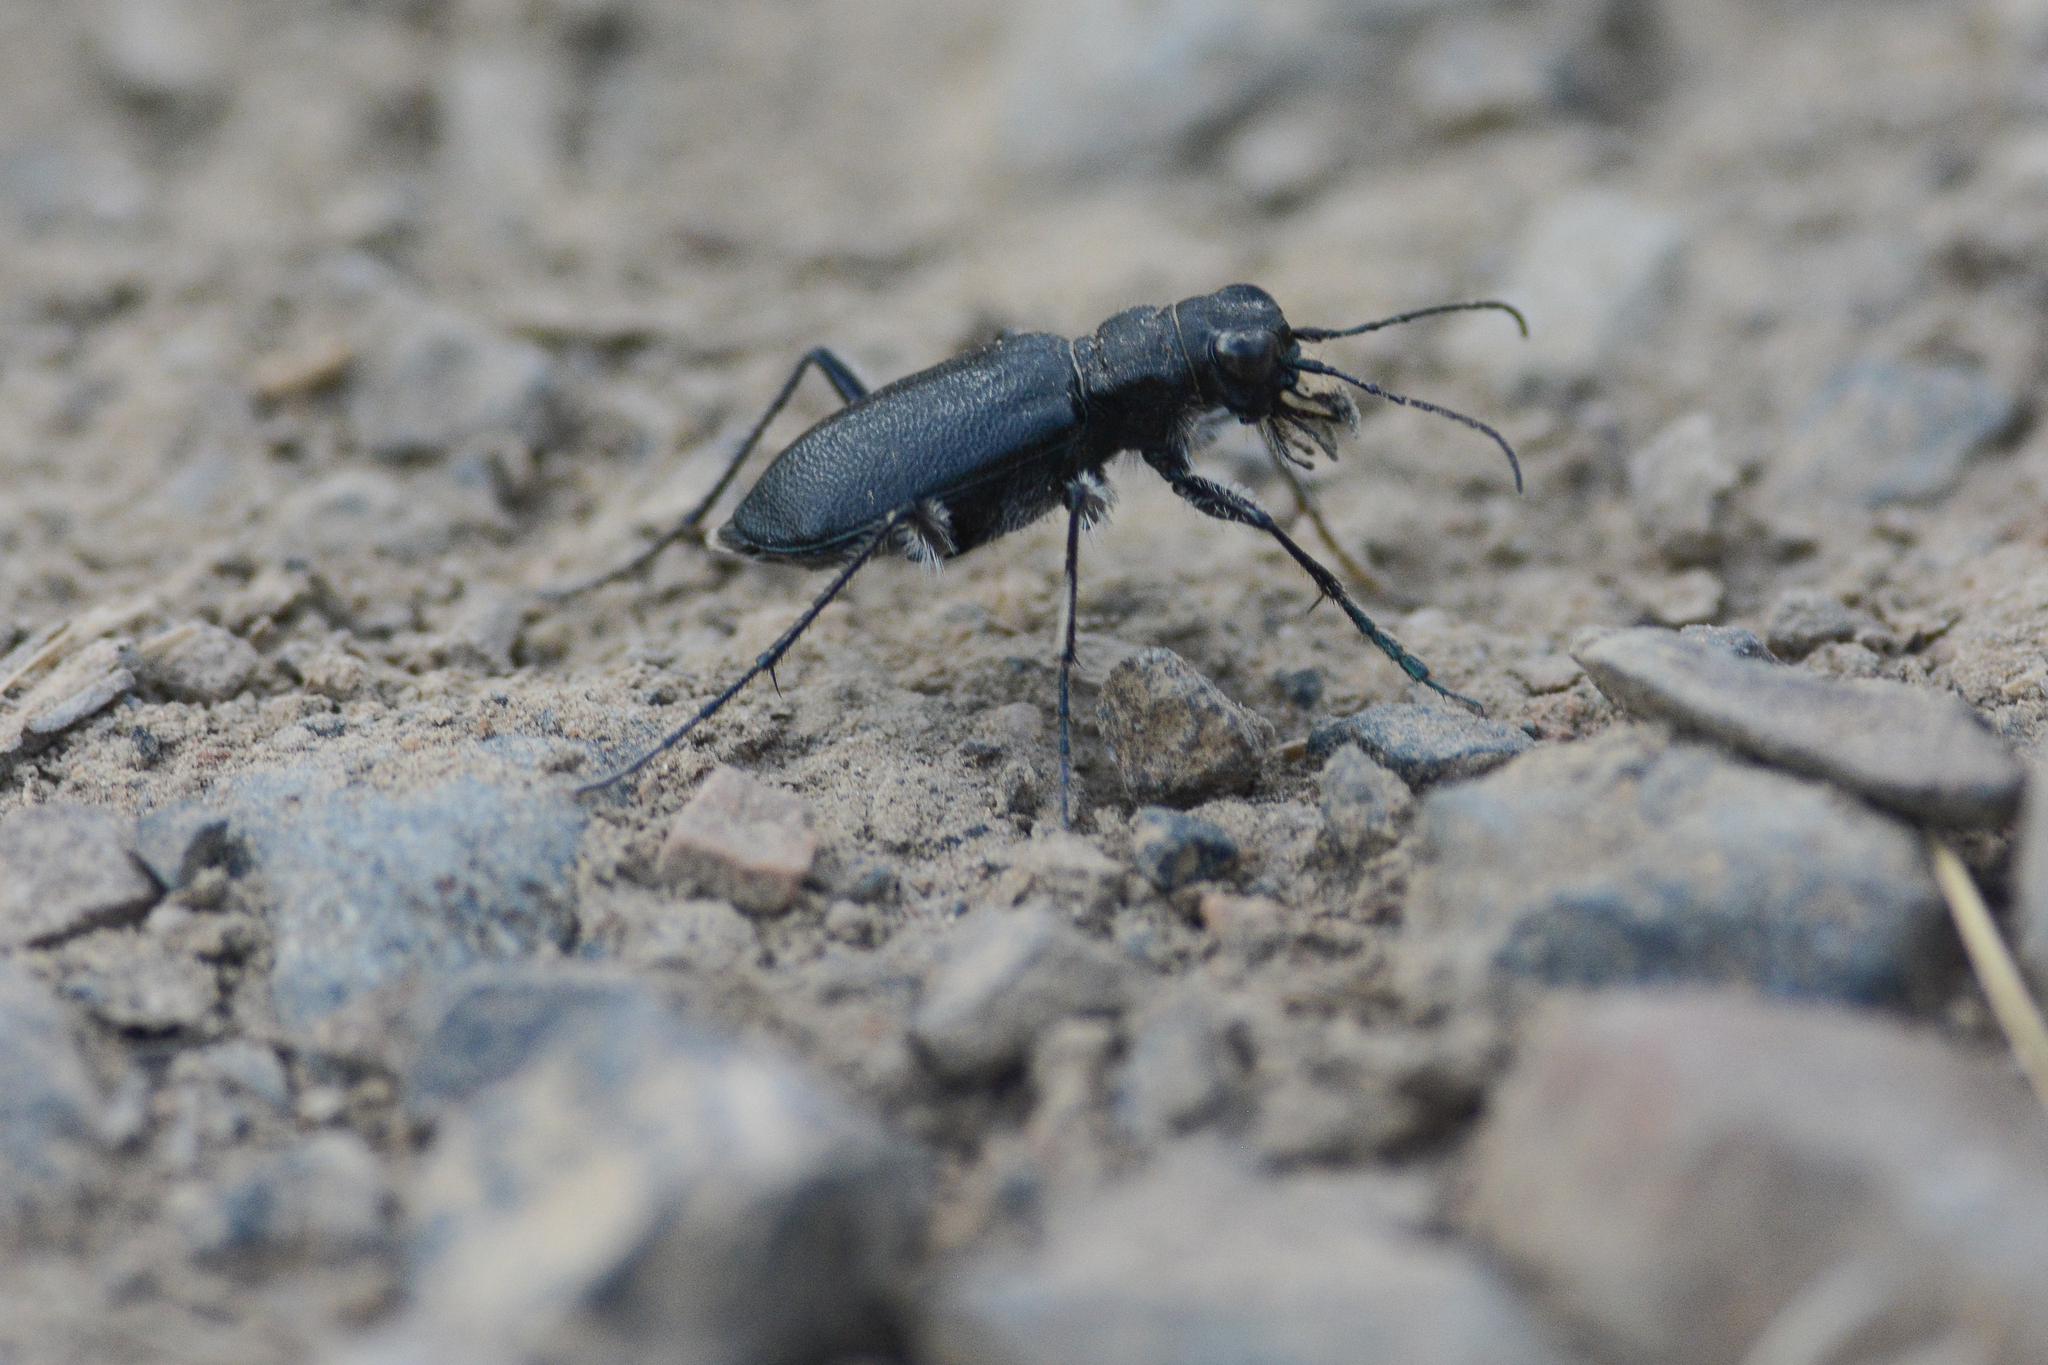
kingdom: Animalia
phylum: Arthropoda
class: Insecta
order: Coleoptera
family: Carabidae
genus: Cicindela
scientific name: Cicindela longilabris
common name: Boreal long-lipped tiger beetle
